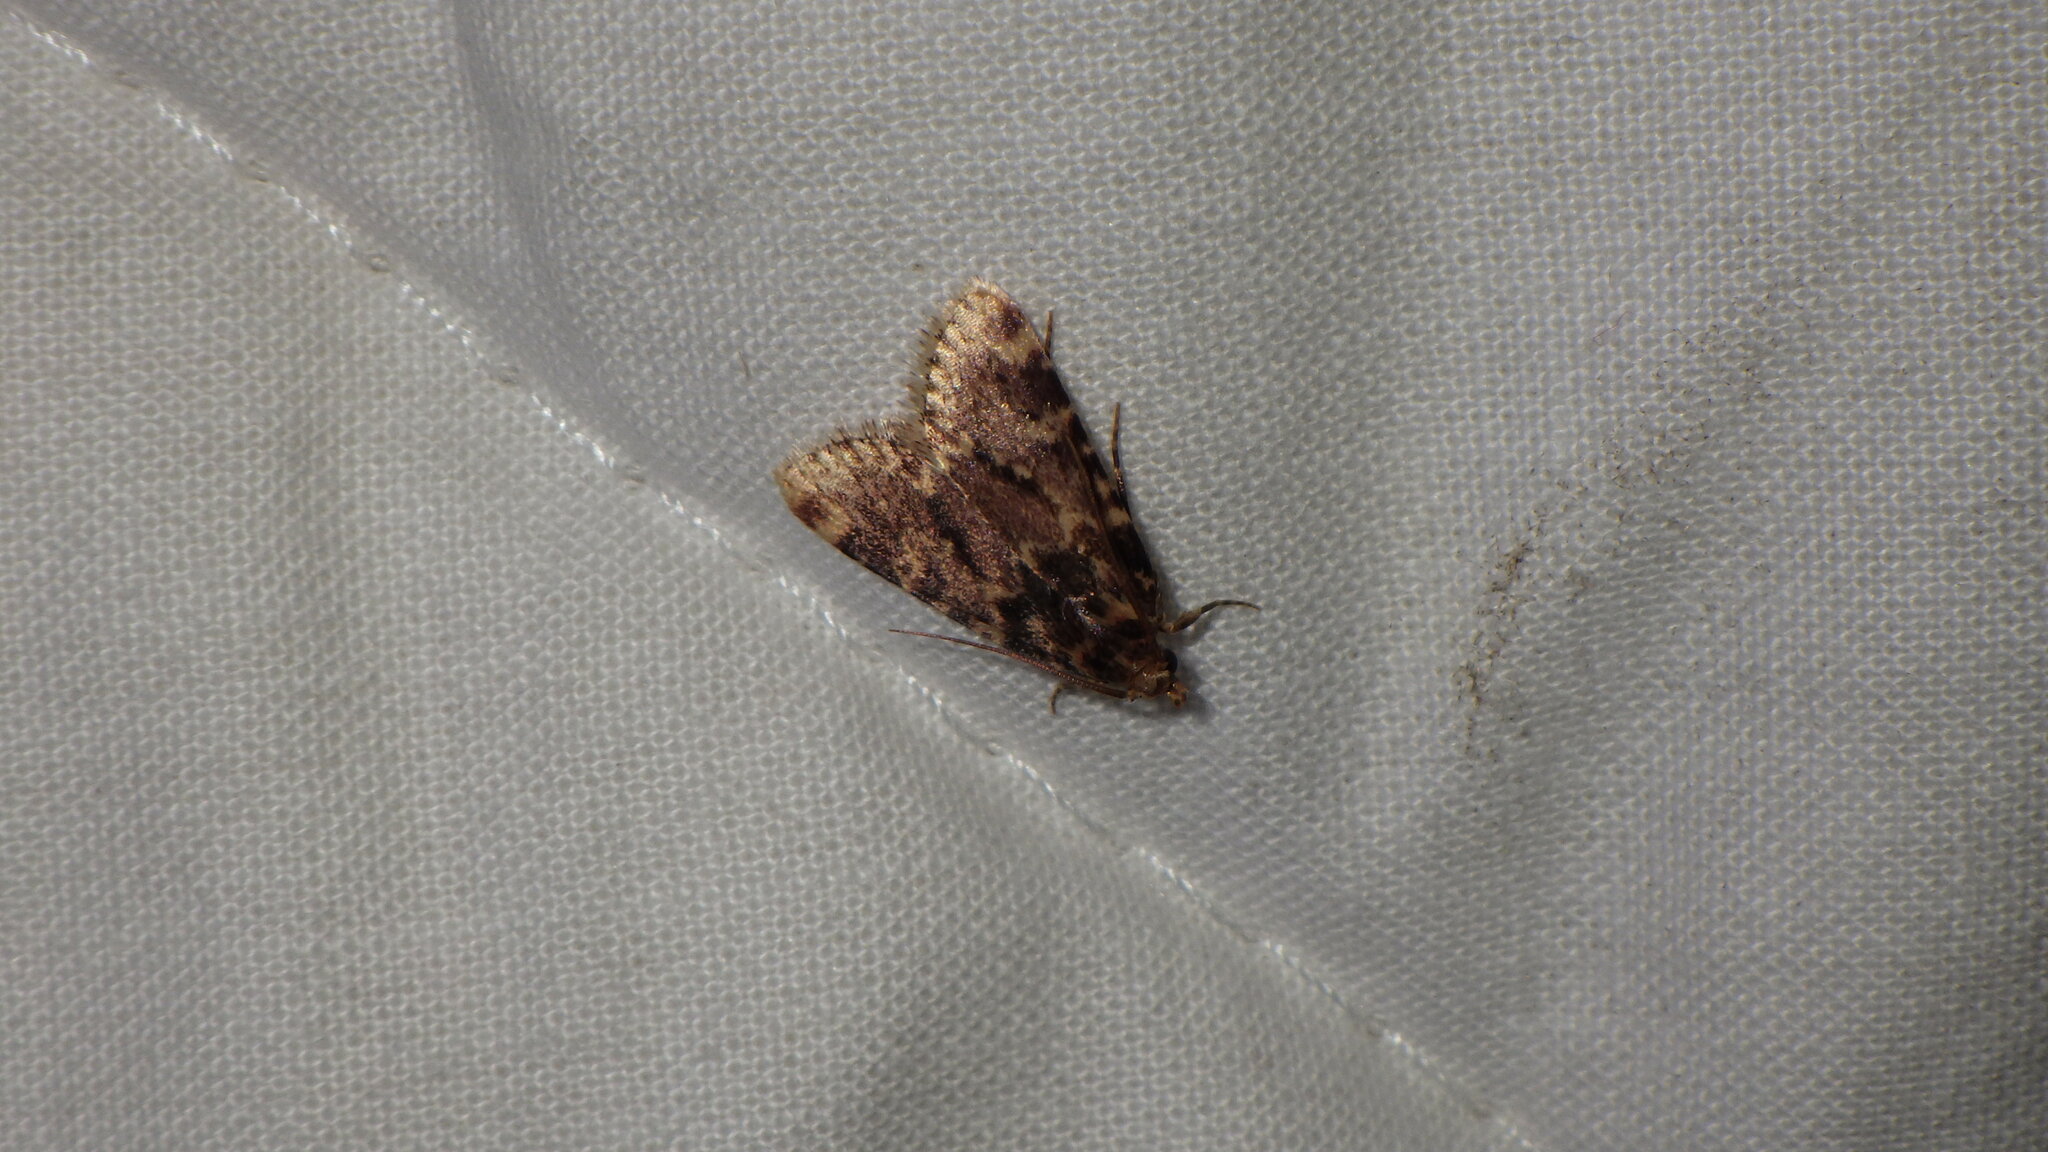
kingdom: Animalia
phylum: Arthropoda
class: Insecta
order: Lepidoptera
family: Pyralidae
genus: Aglossa
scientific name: Aglossa caprealis
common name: Small tabby
